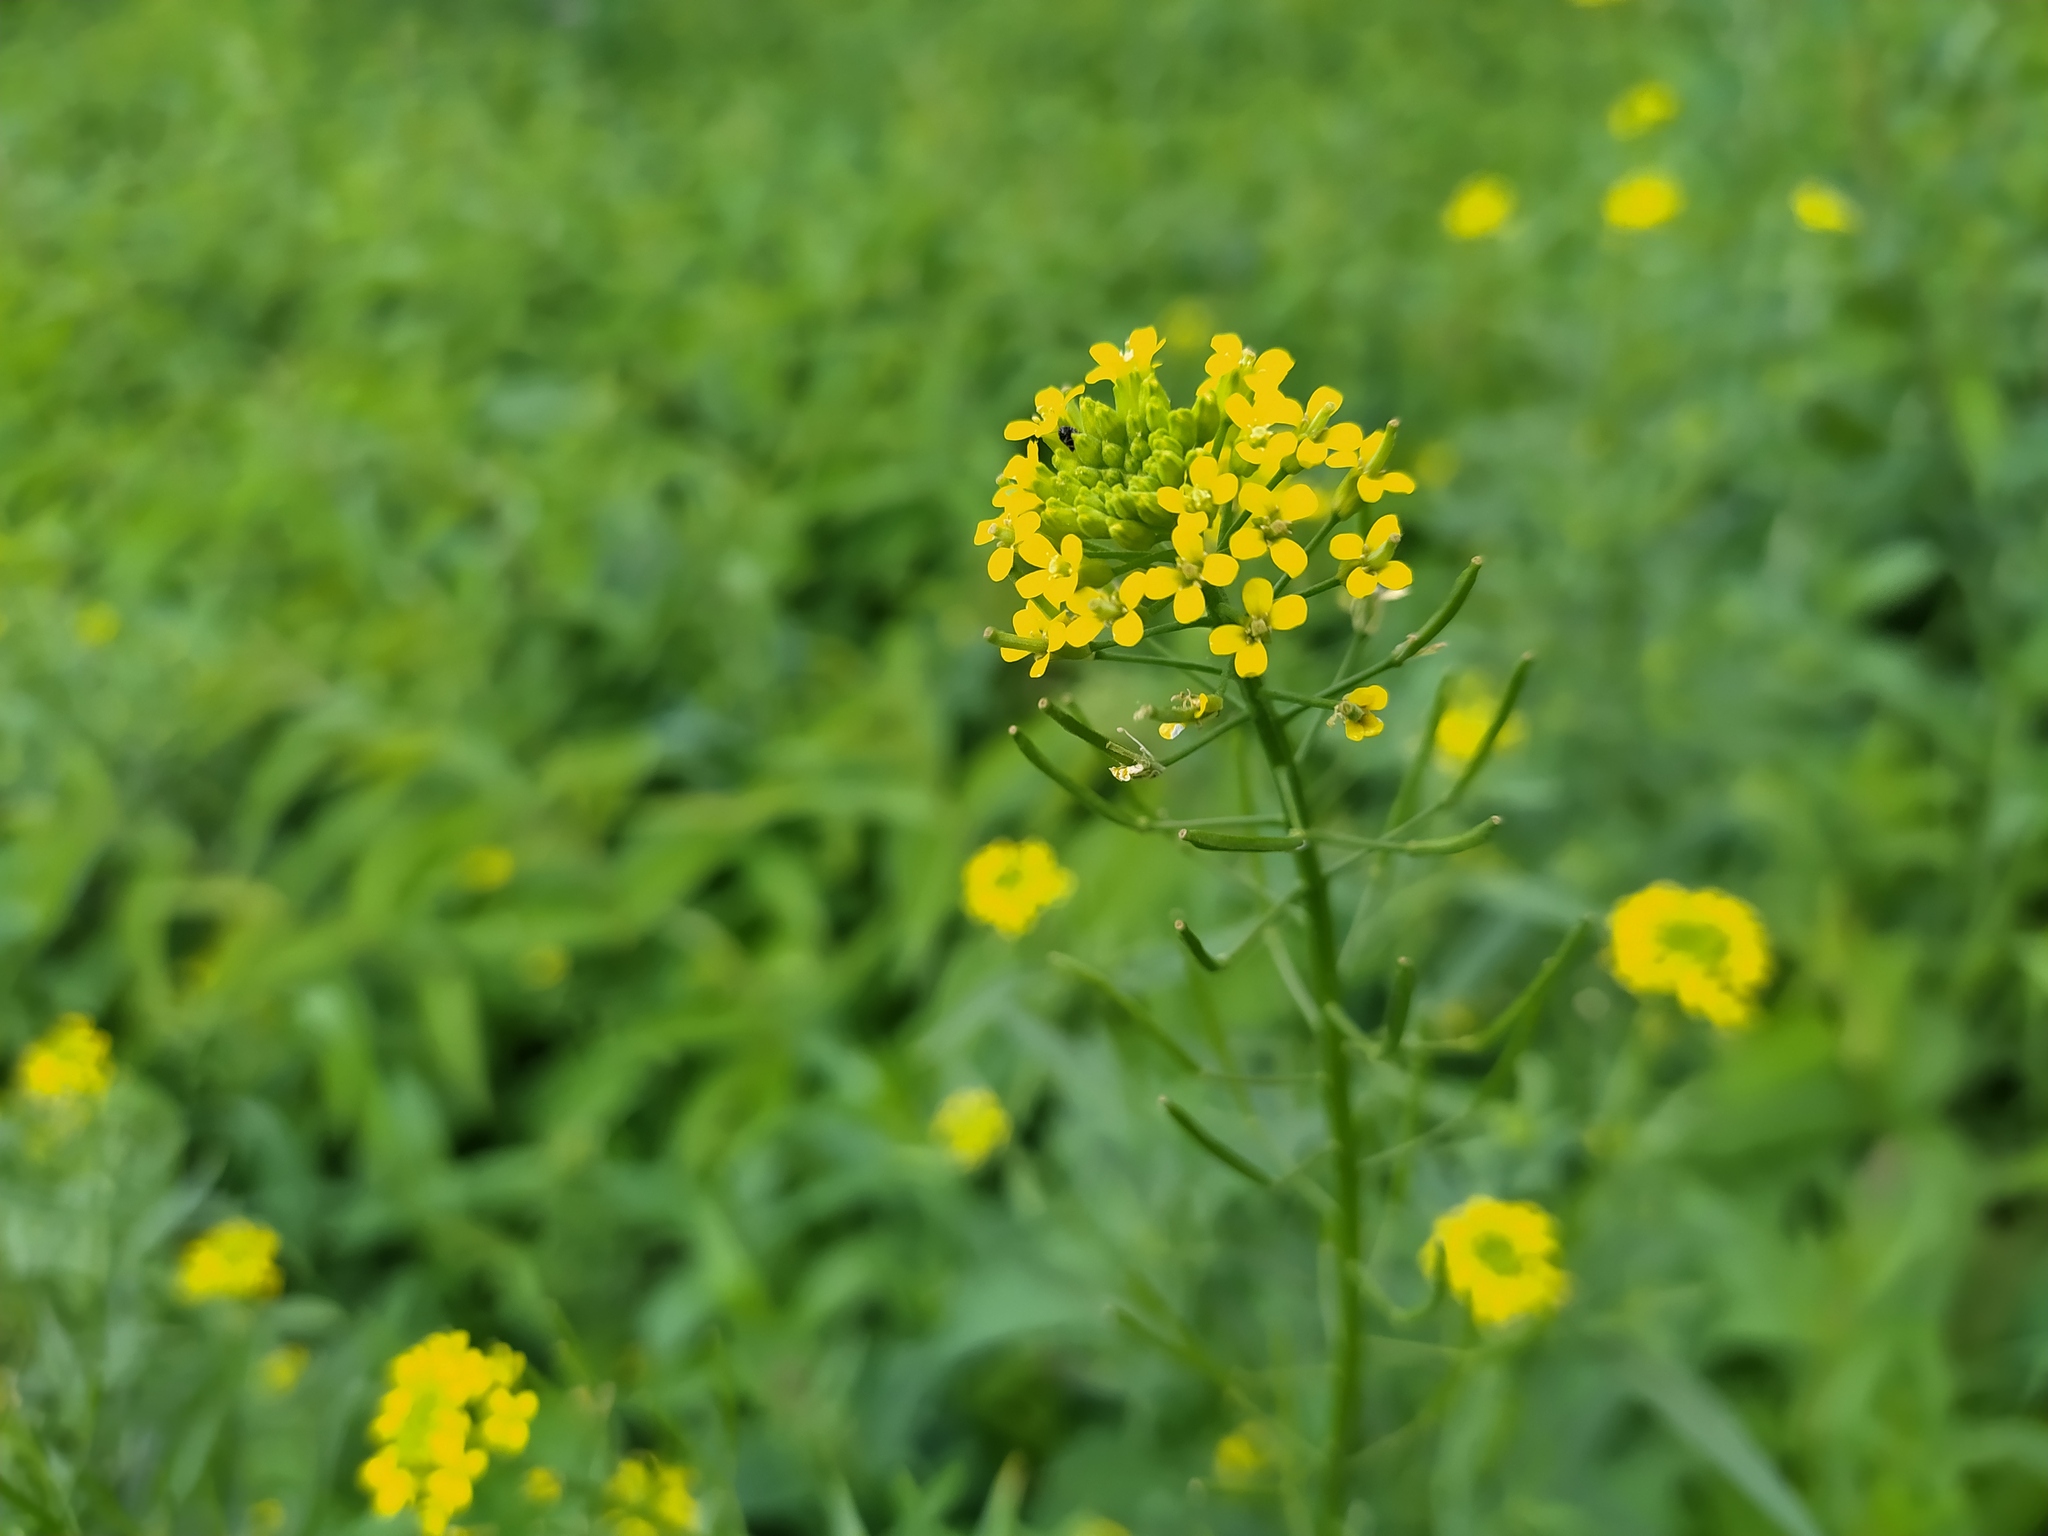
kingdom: Plantae
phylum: Tracheophyta
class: Magnoliopsida
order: Brassicales
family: Brassicaceae
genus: Erysimum
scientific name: Erysimum cheiranthoides
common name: Treacle mustard
